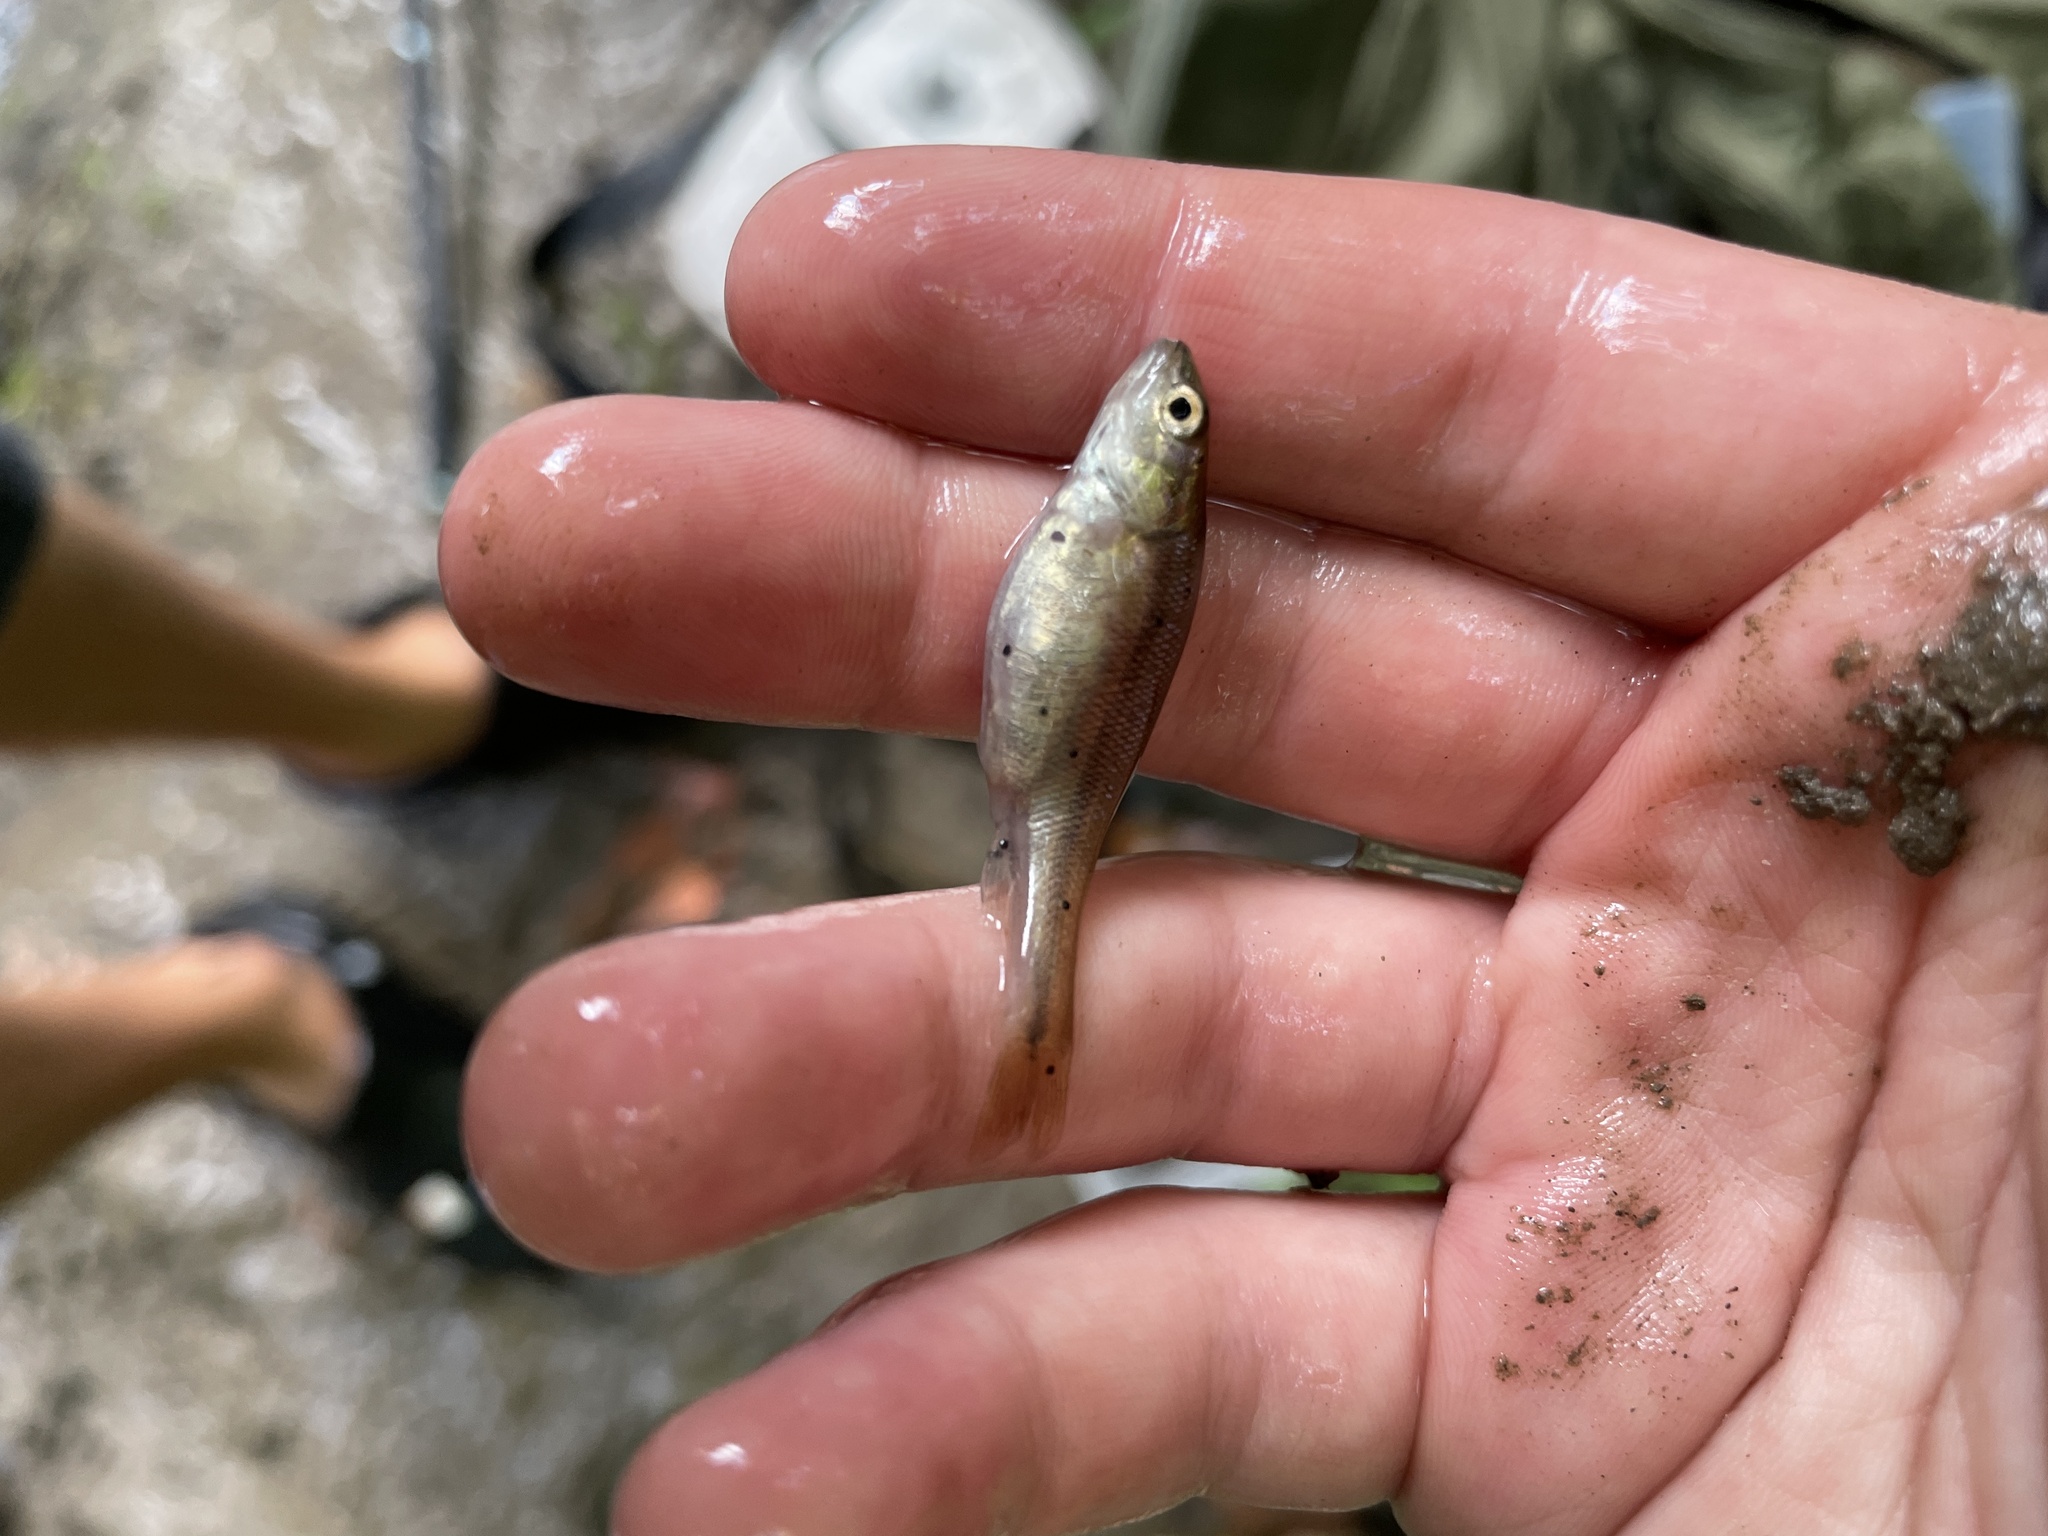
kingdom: Animalia
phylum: Platyhelminthes
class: Trematoda
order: Diplostomida
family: Diplostomidae
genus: Neascus
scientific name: Neascus
